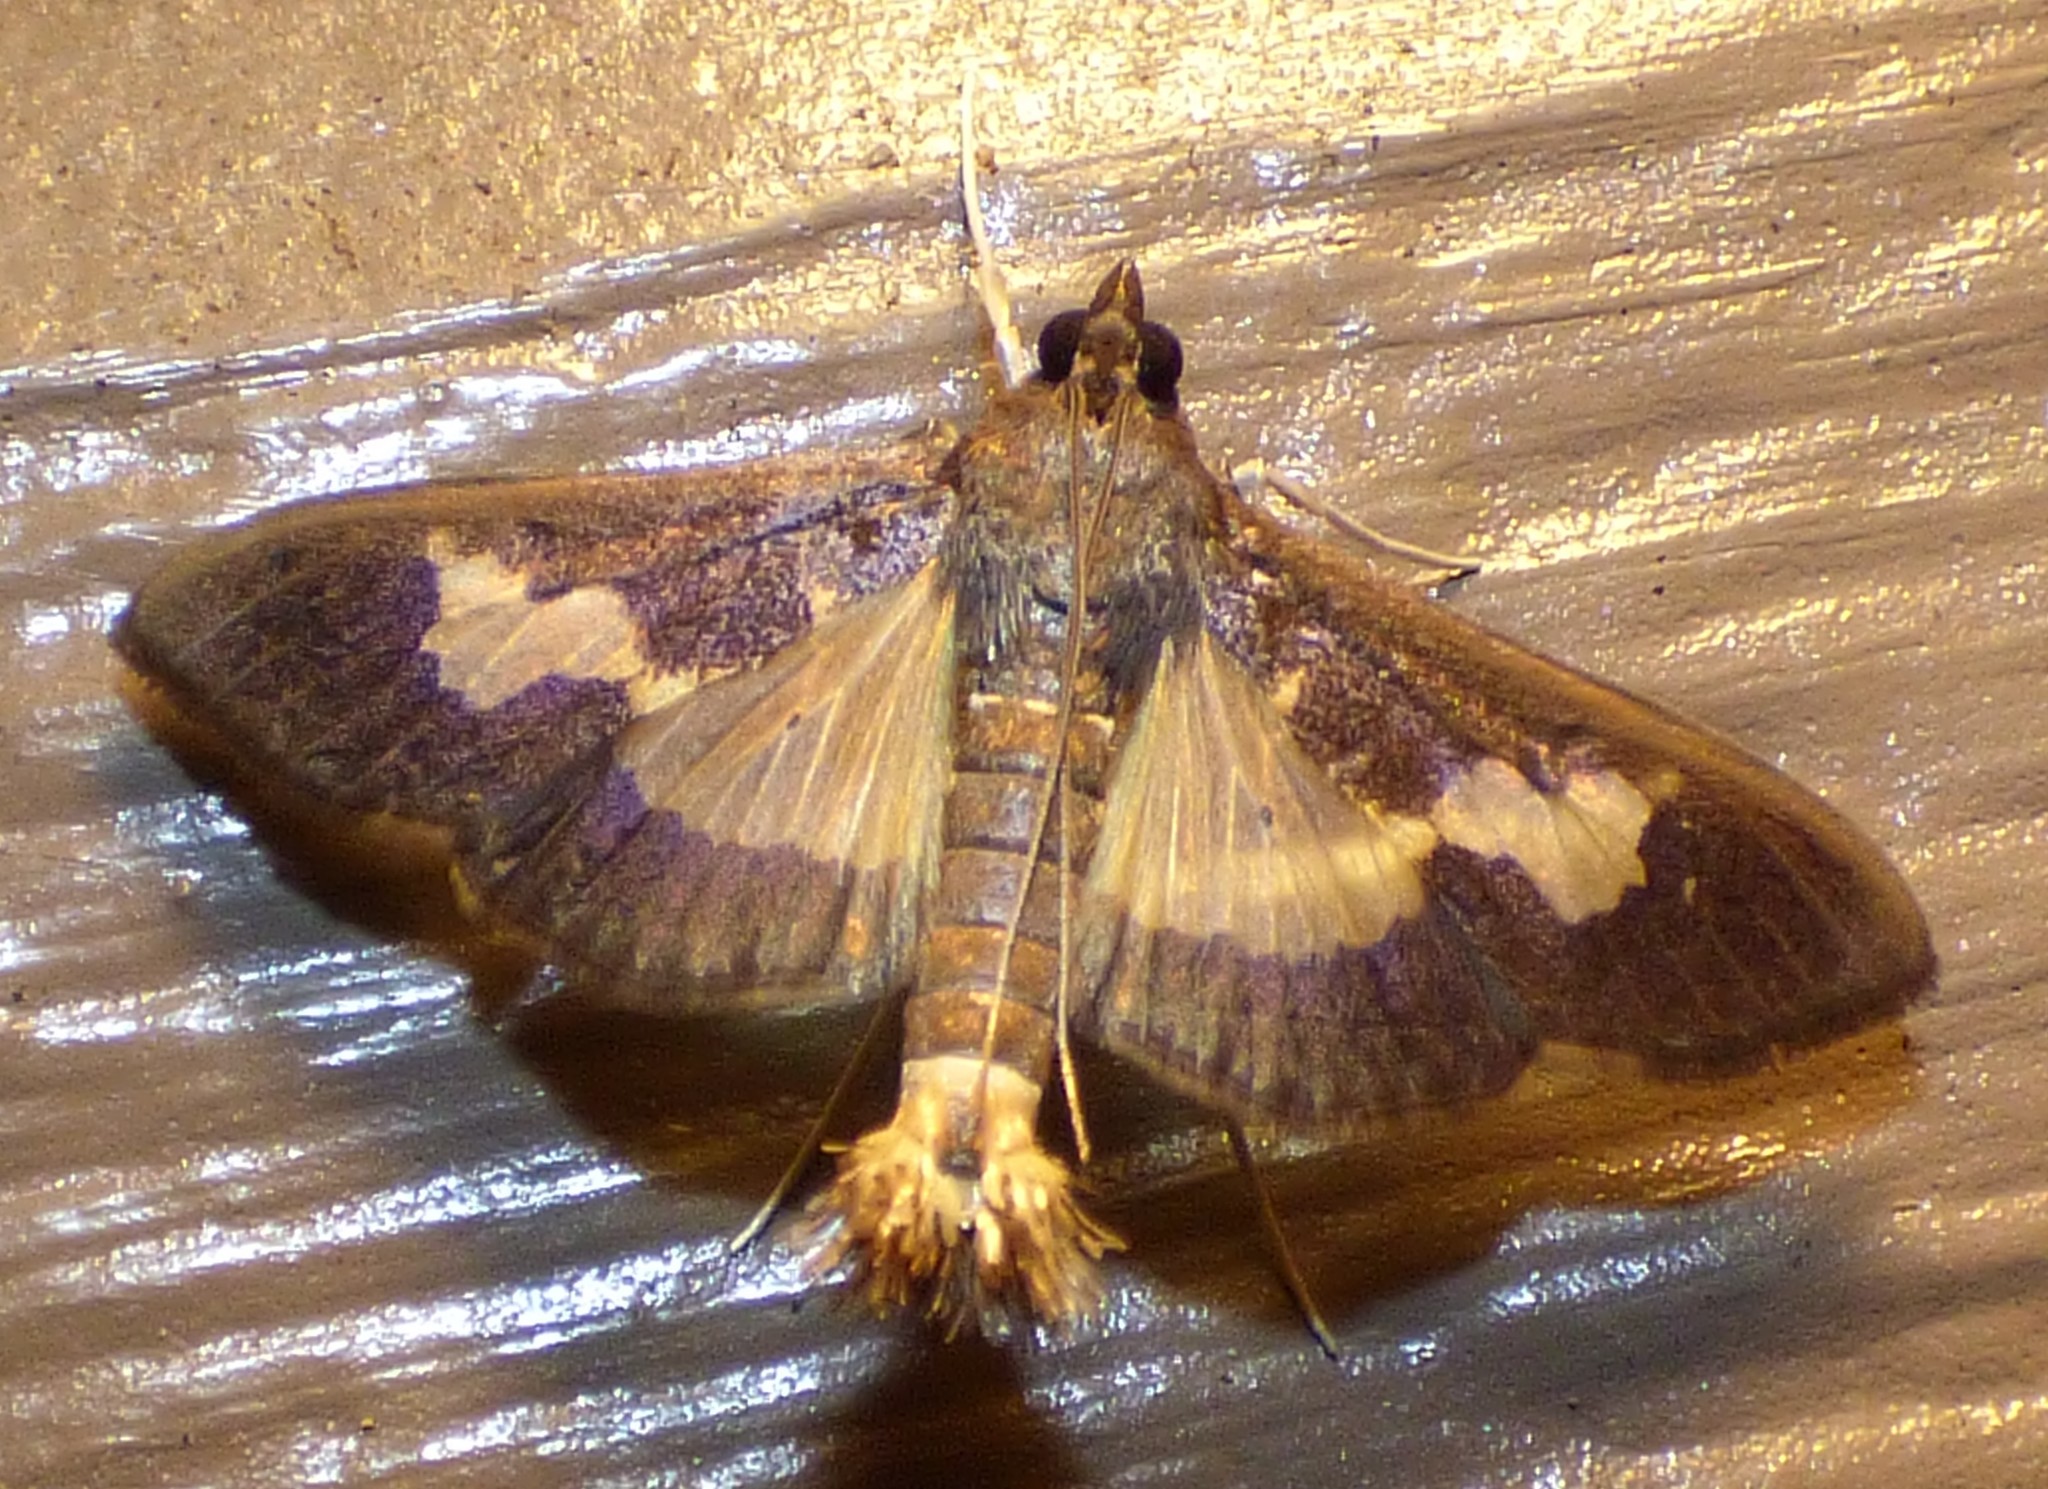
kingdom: Animalia
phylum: Arthropoda
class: Insecta
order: Lepidoptera
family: Crambidae
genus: Cryptographis
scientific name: Cryptographis nitidalis
